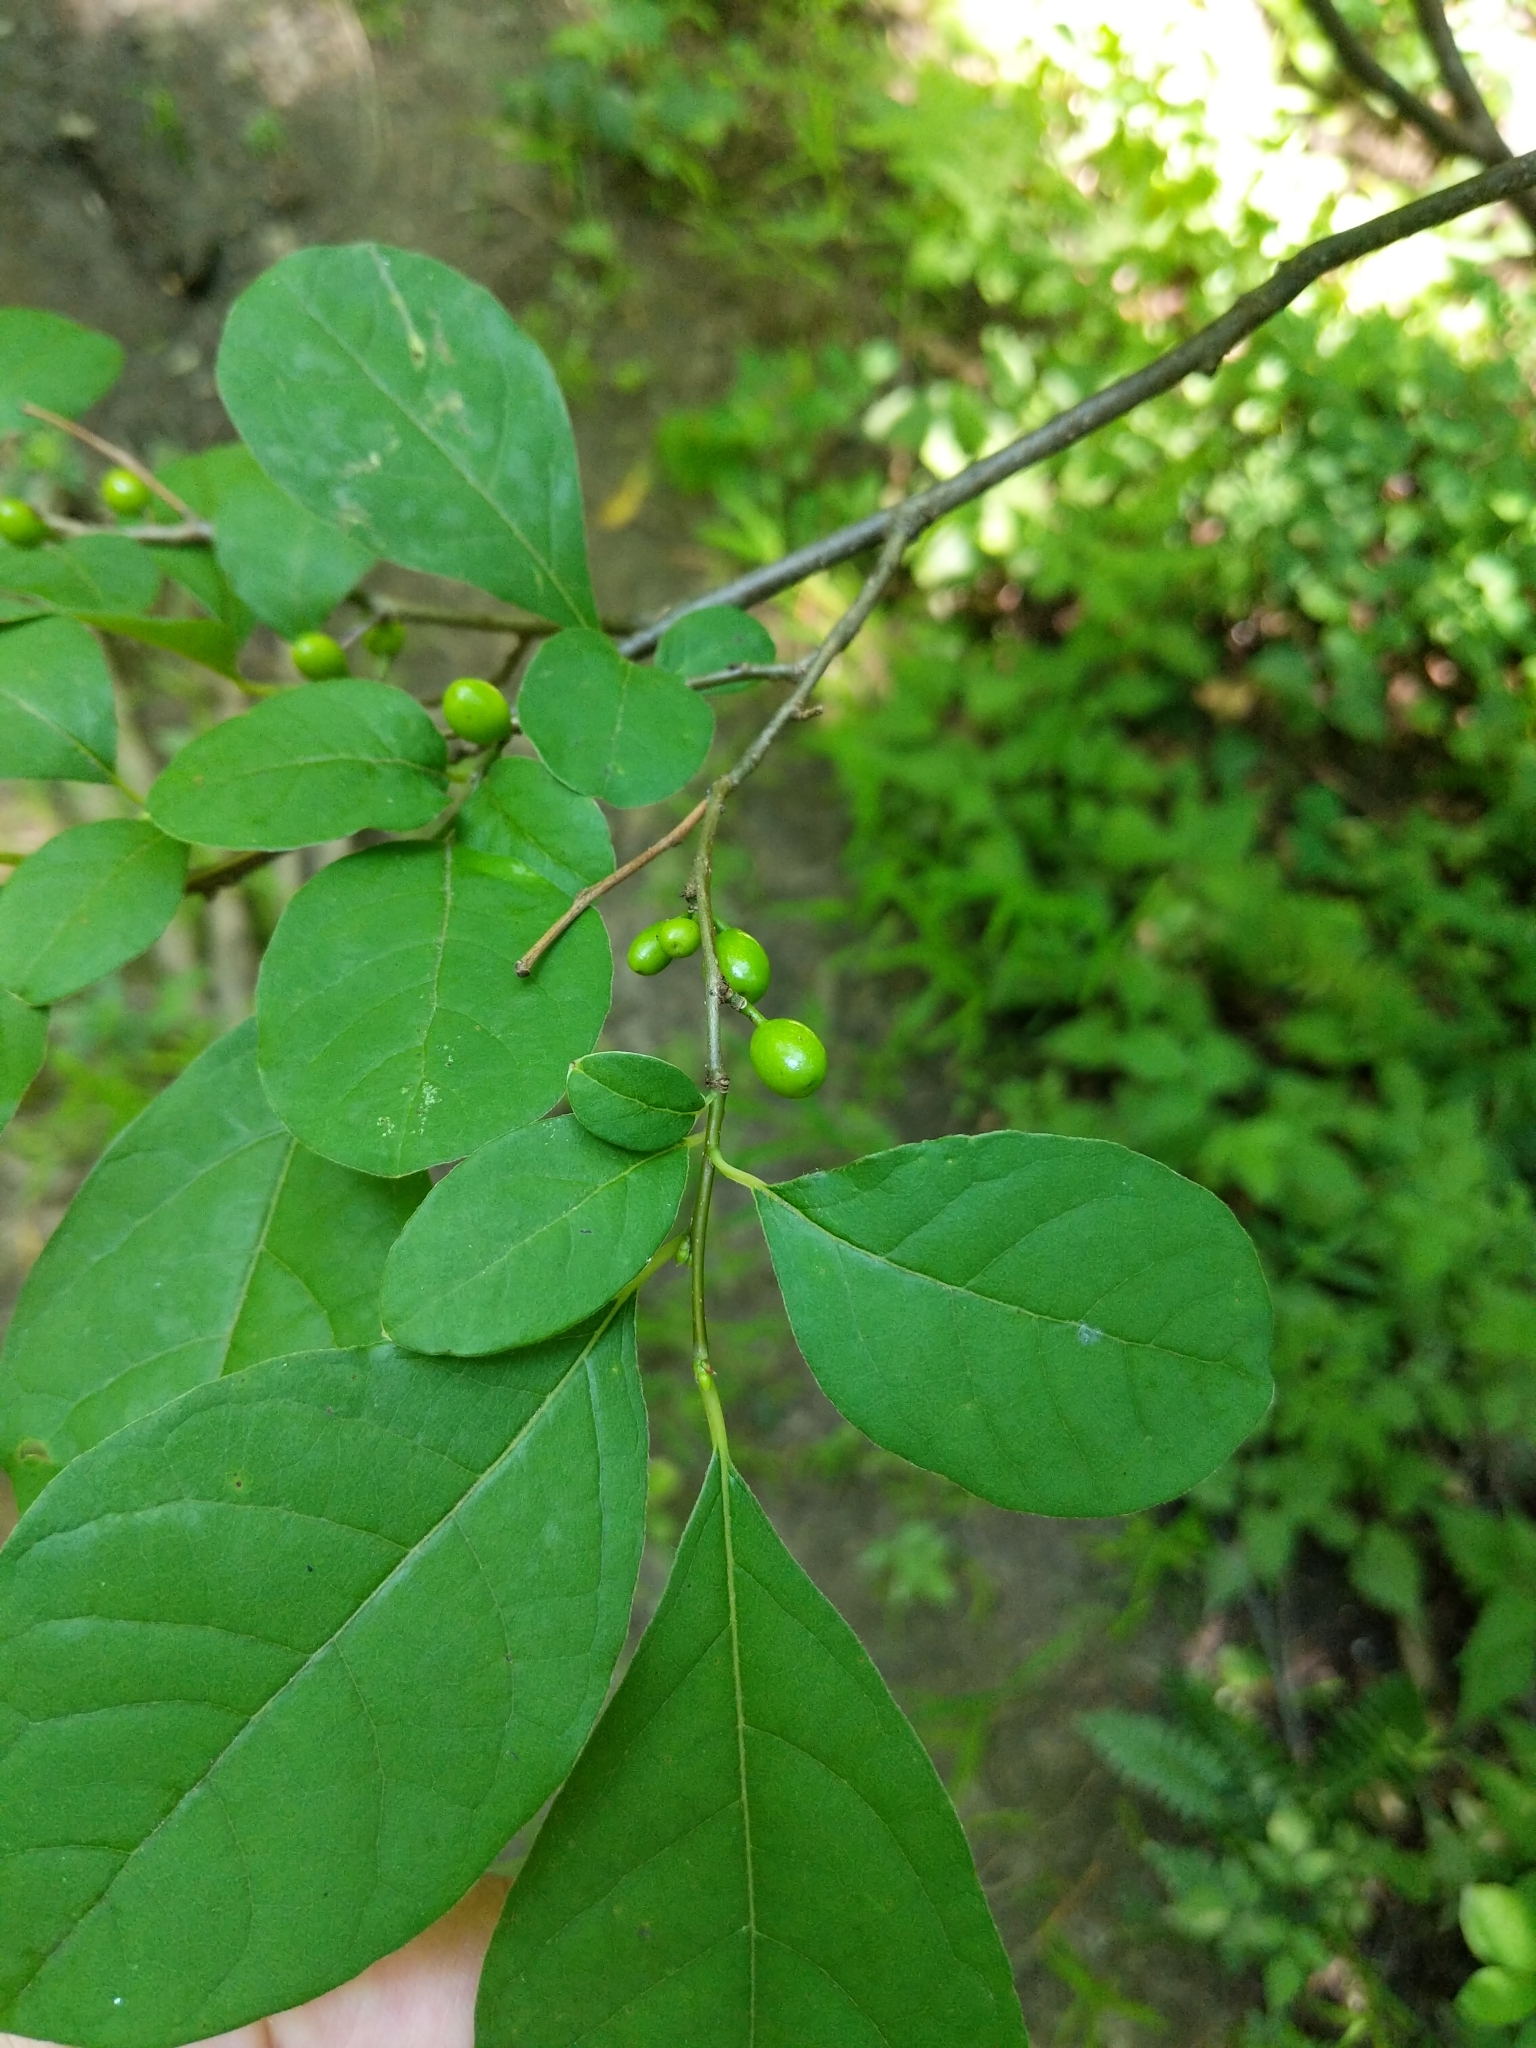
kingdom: Plantae
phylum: Tracheophyta
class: Magnoliopsida
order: Laurales
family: Lauraceae
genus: Lindera
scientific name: Lindera benzoin
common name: Spicebush
